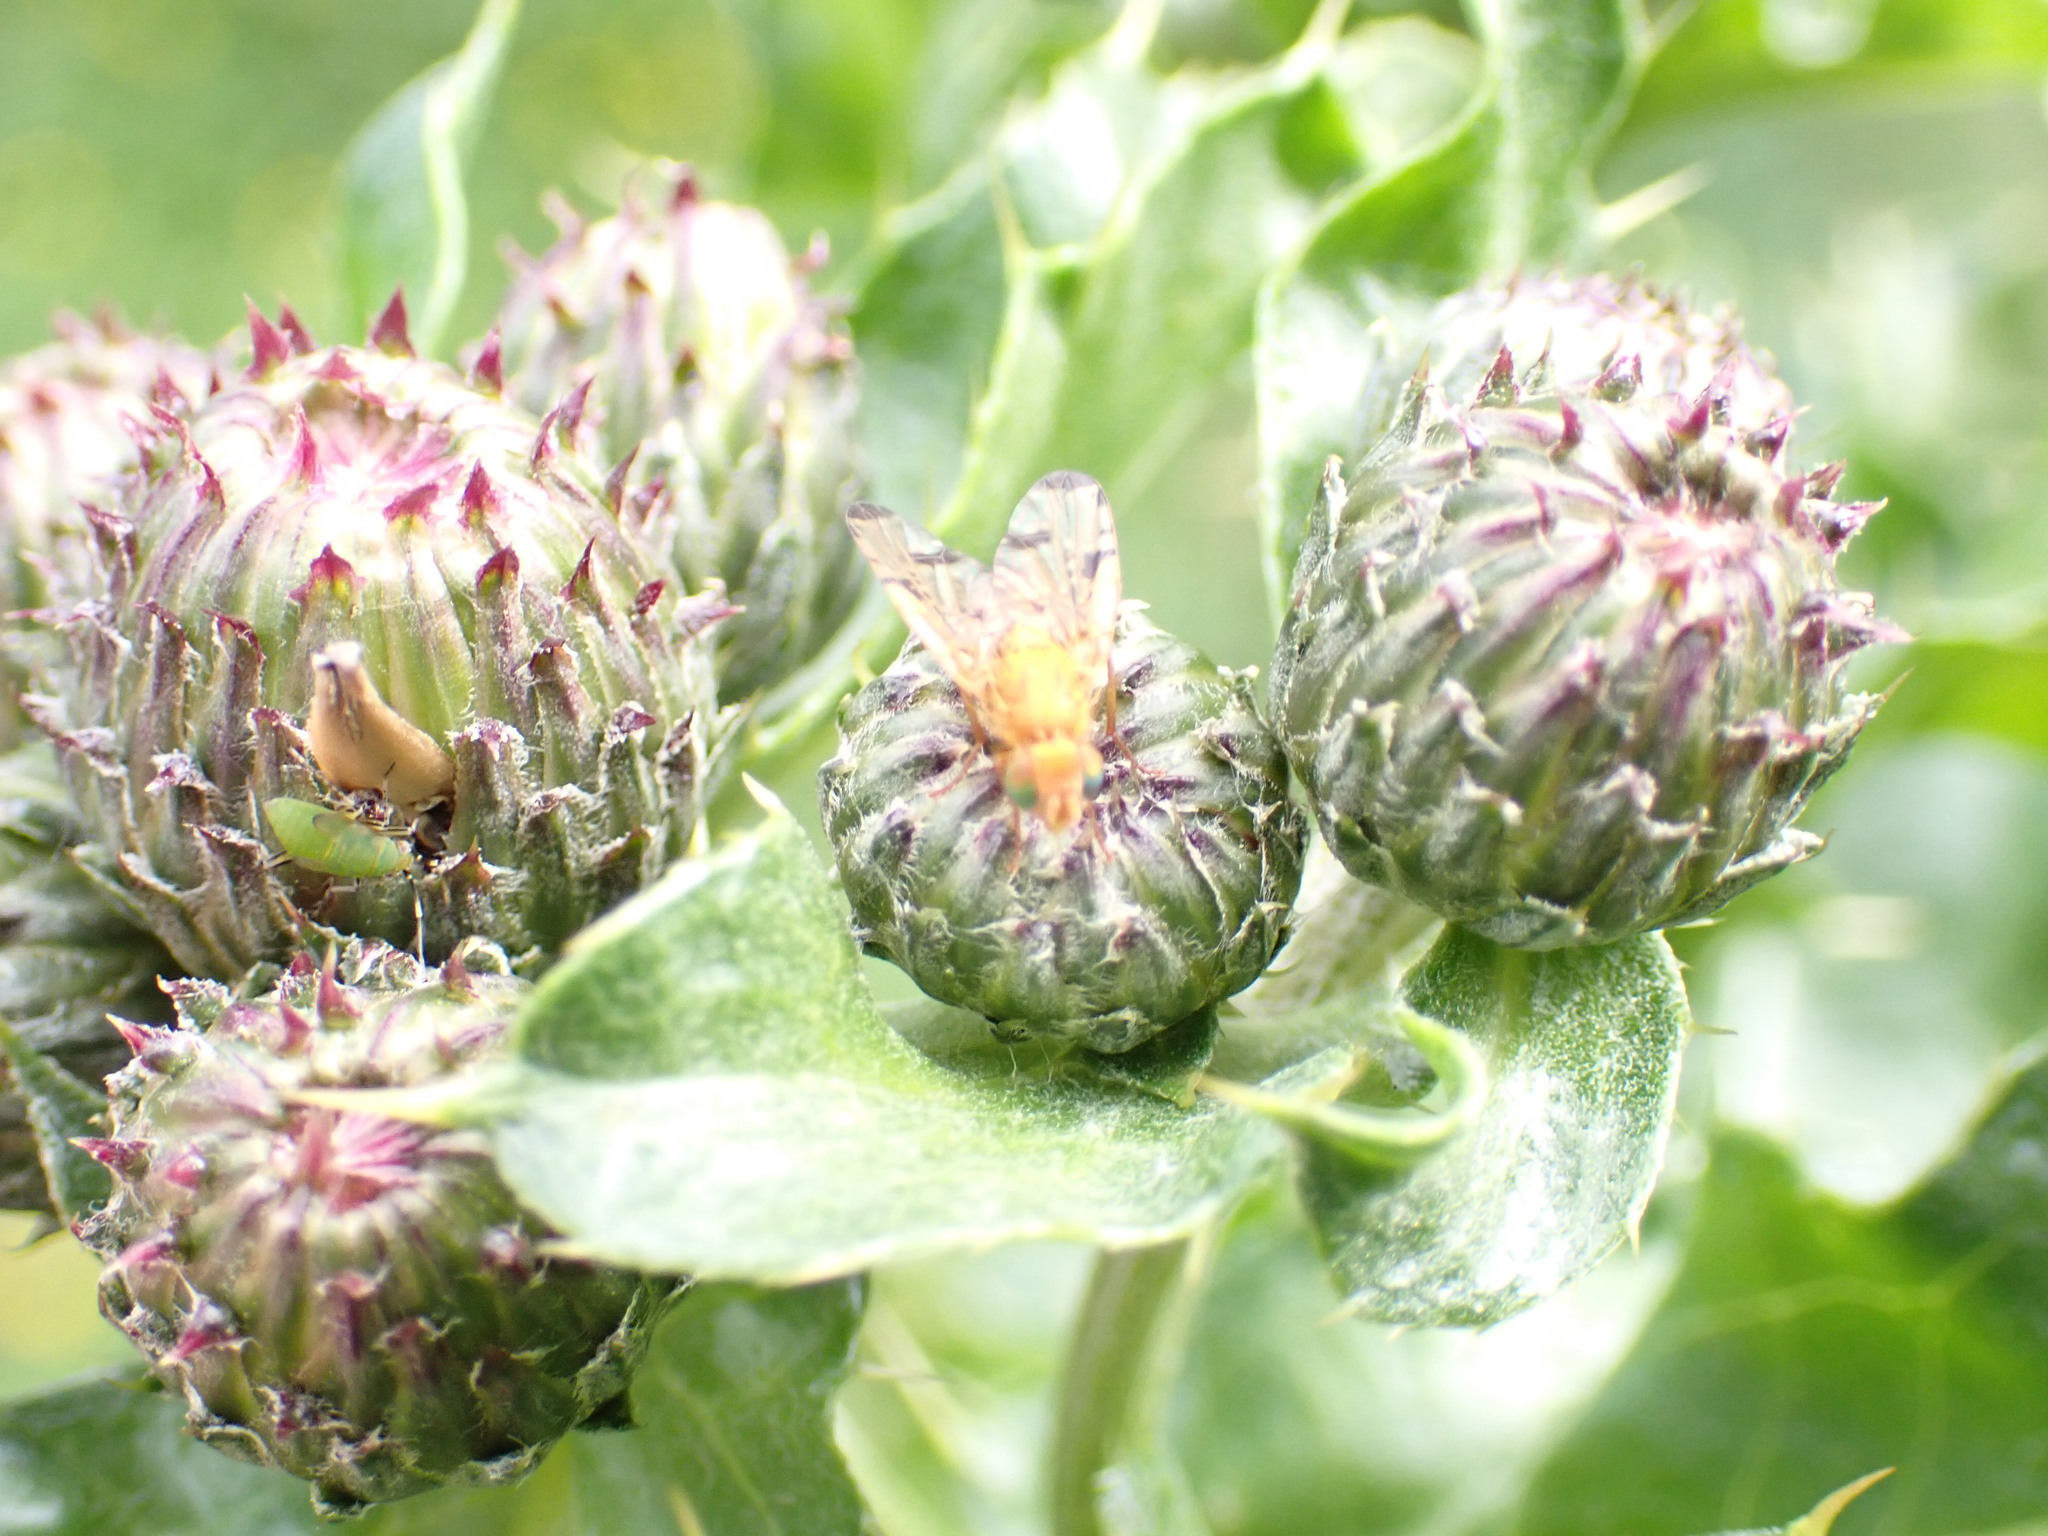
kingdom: Animalia
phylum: Arthropoda
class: Insecta
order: Diptera
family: Tephritidae
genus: Xyphosia
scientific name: Xyphosia miliaria
